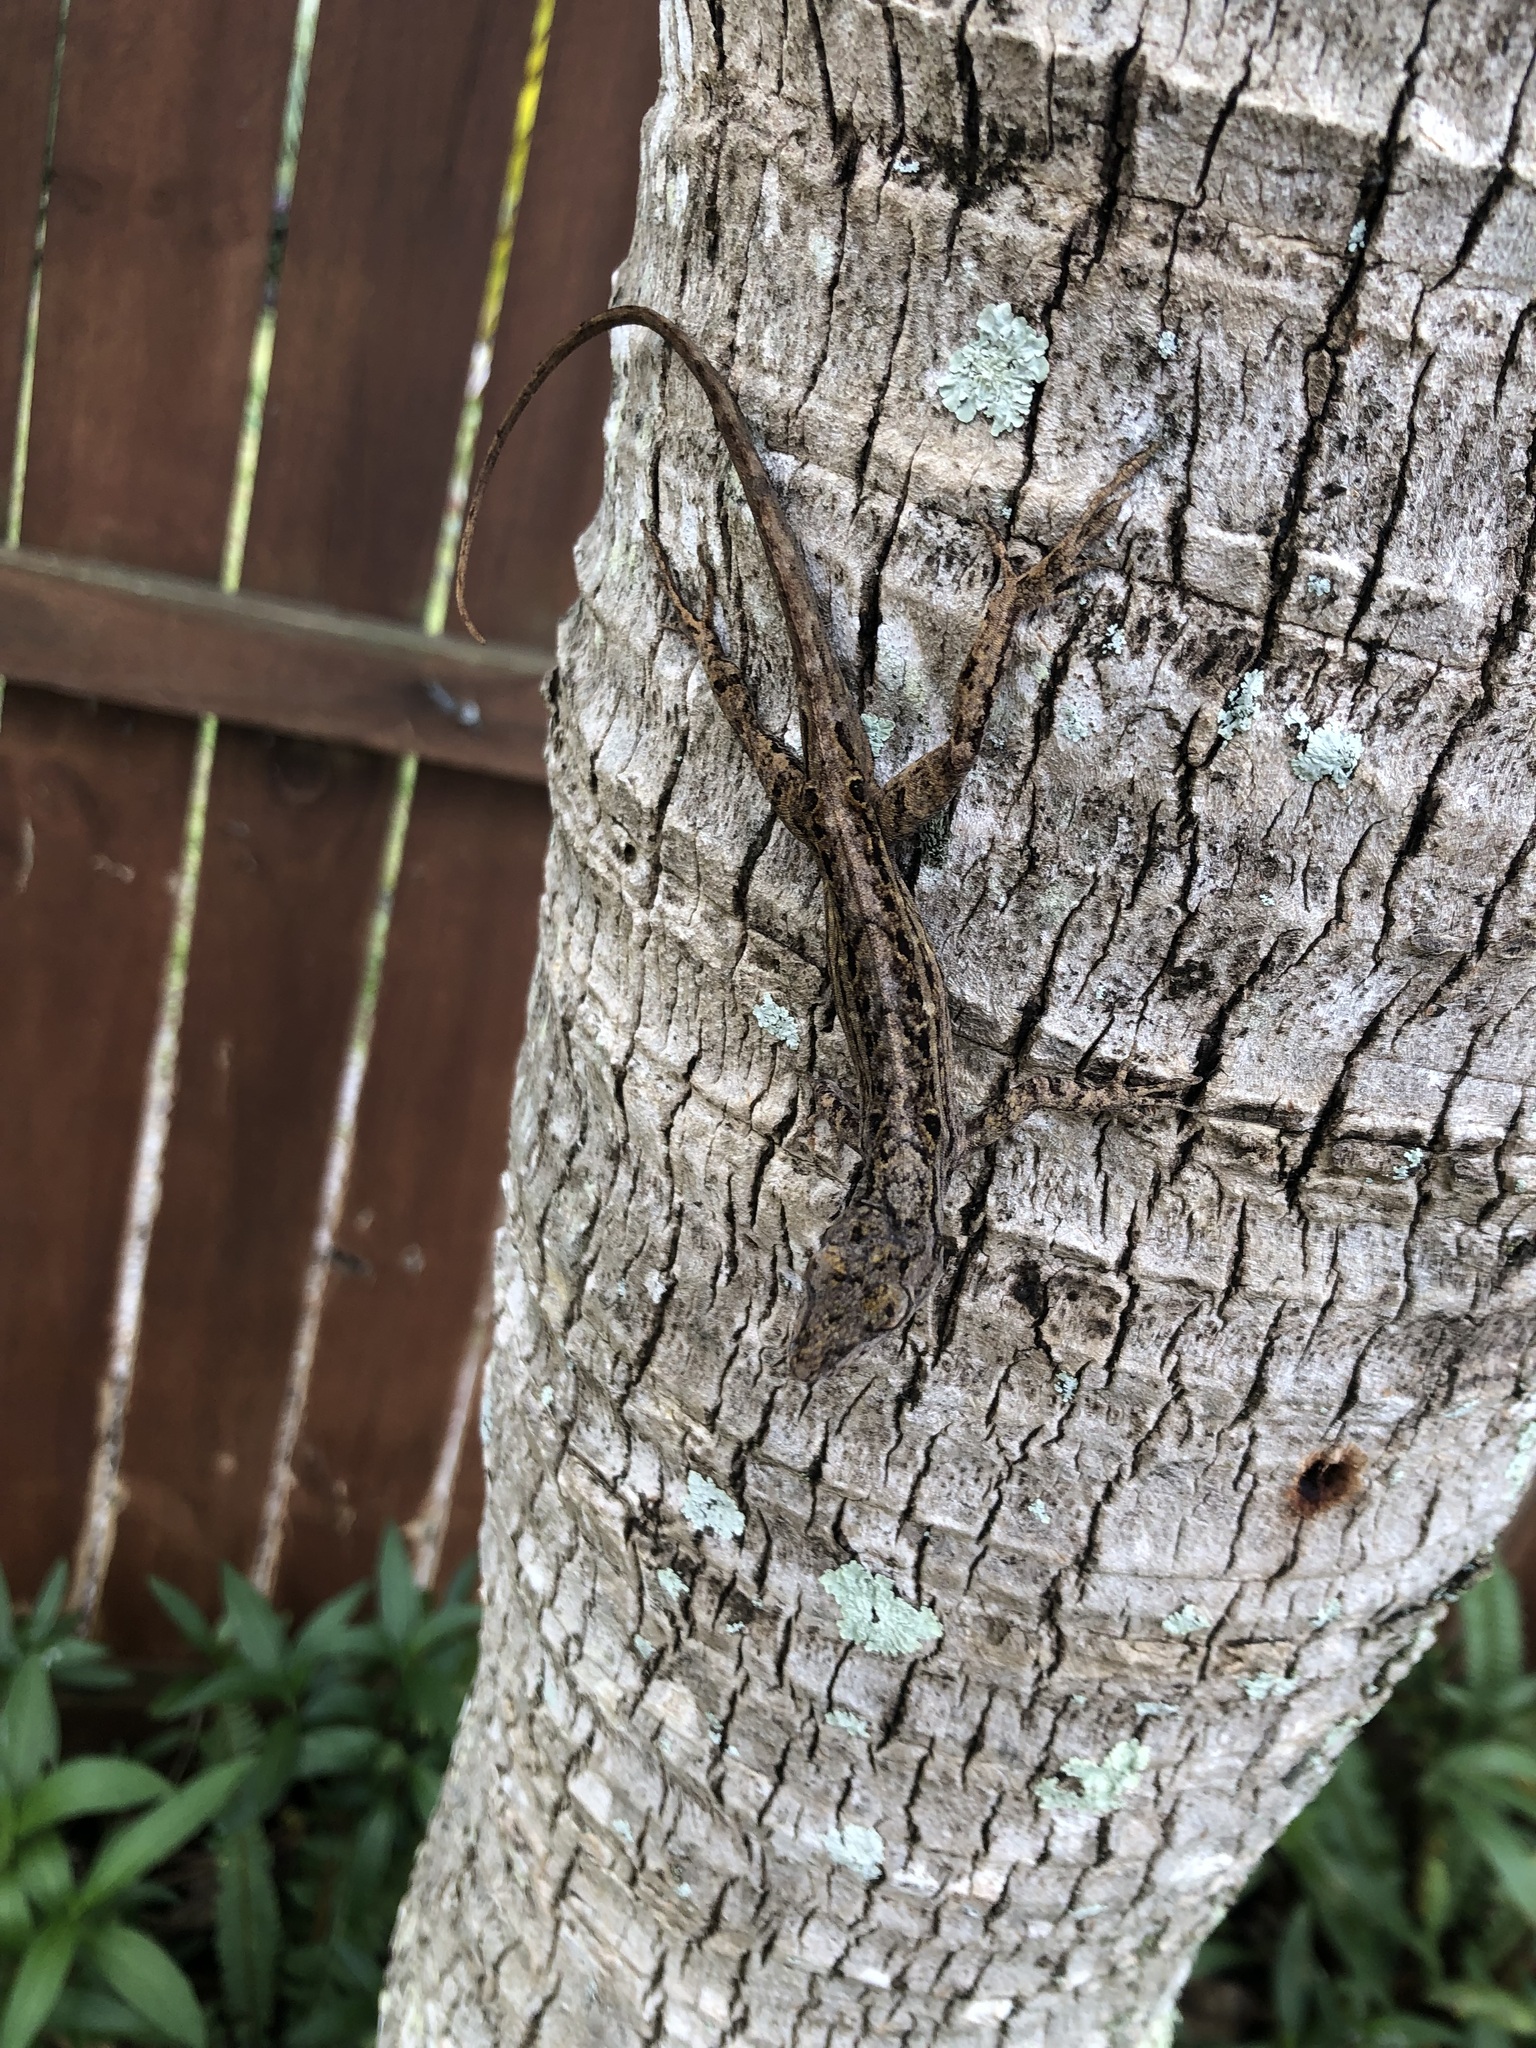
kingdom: Animalia
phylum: Chordata
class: Squamata
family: Dactyloidae
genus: Anolis
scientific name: Anolis sagrei
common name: Brown anole
